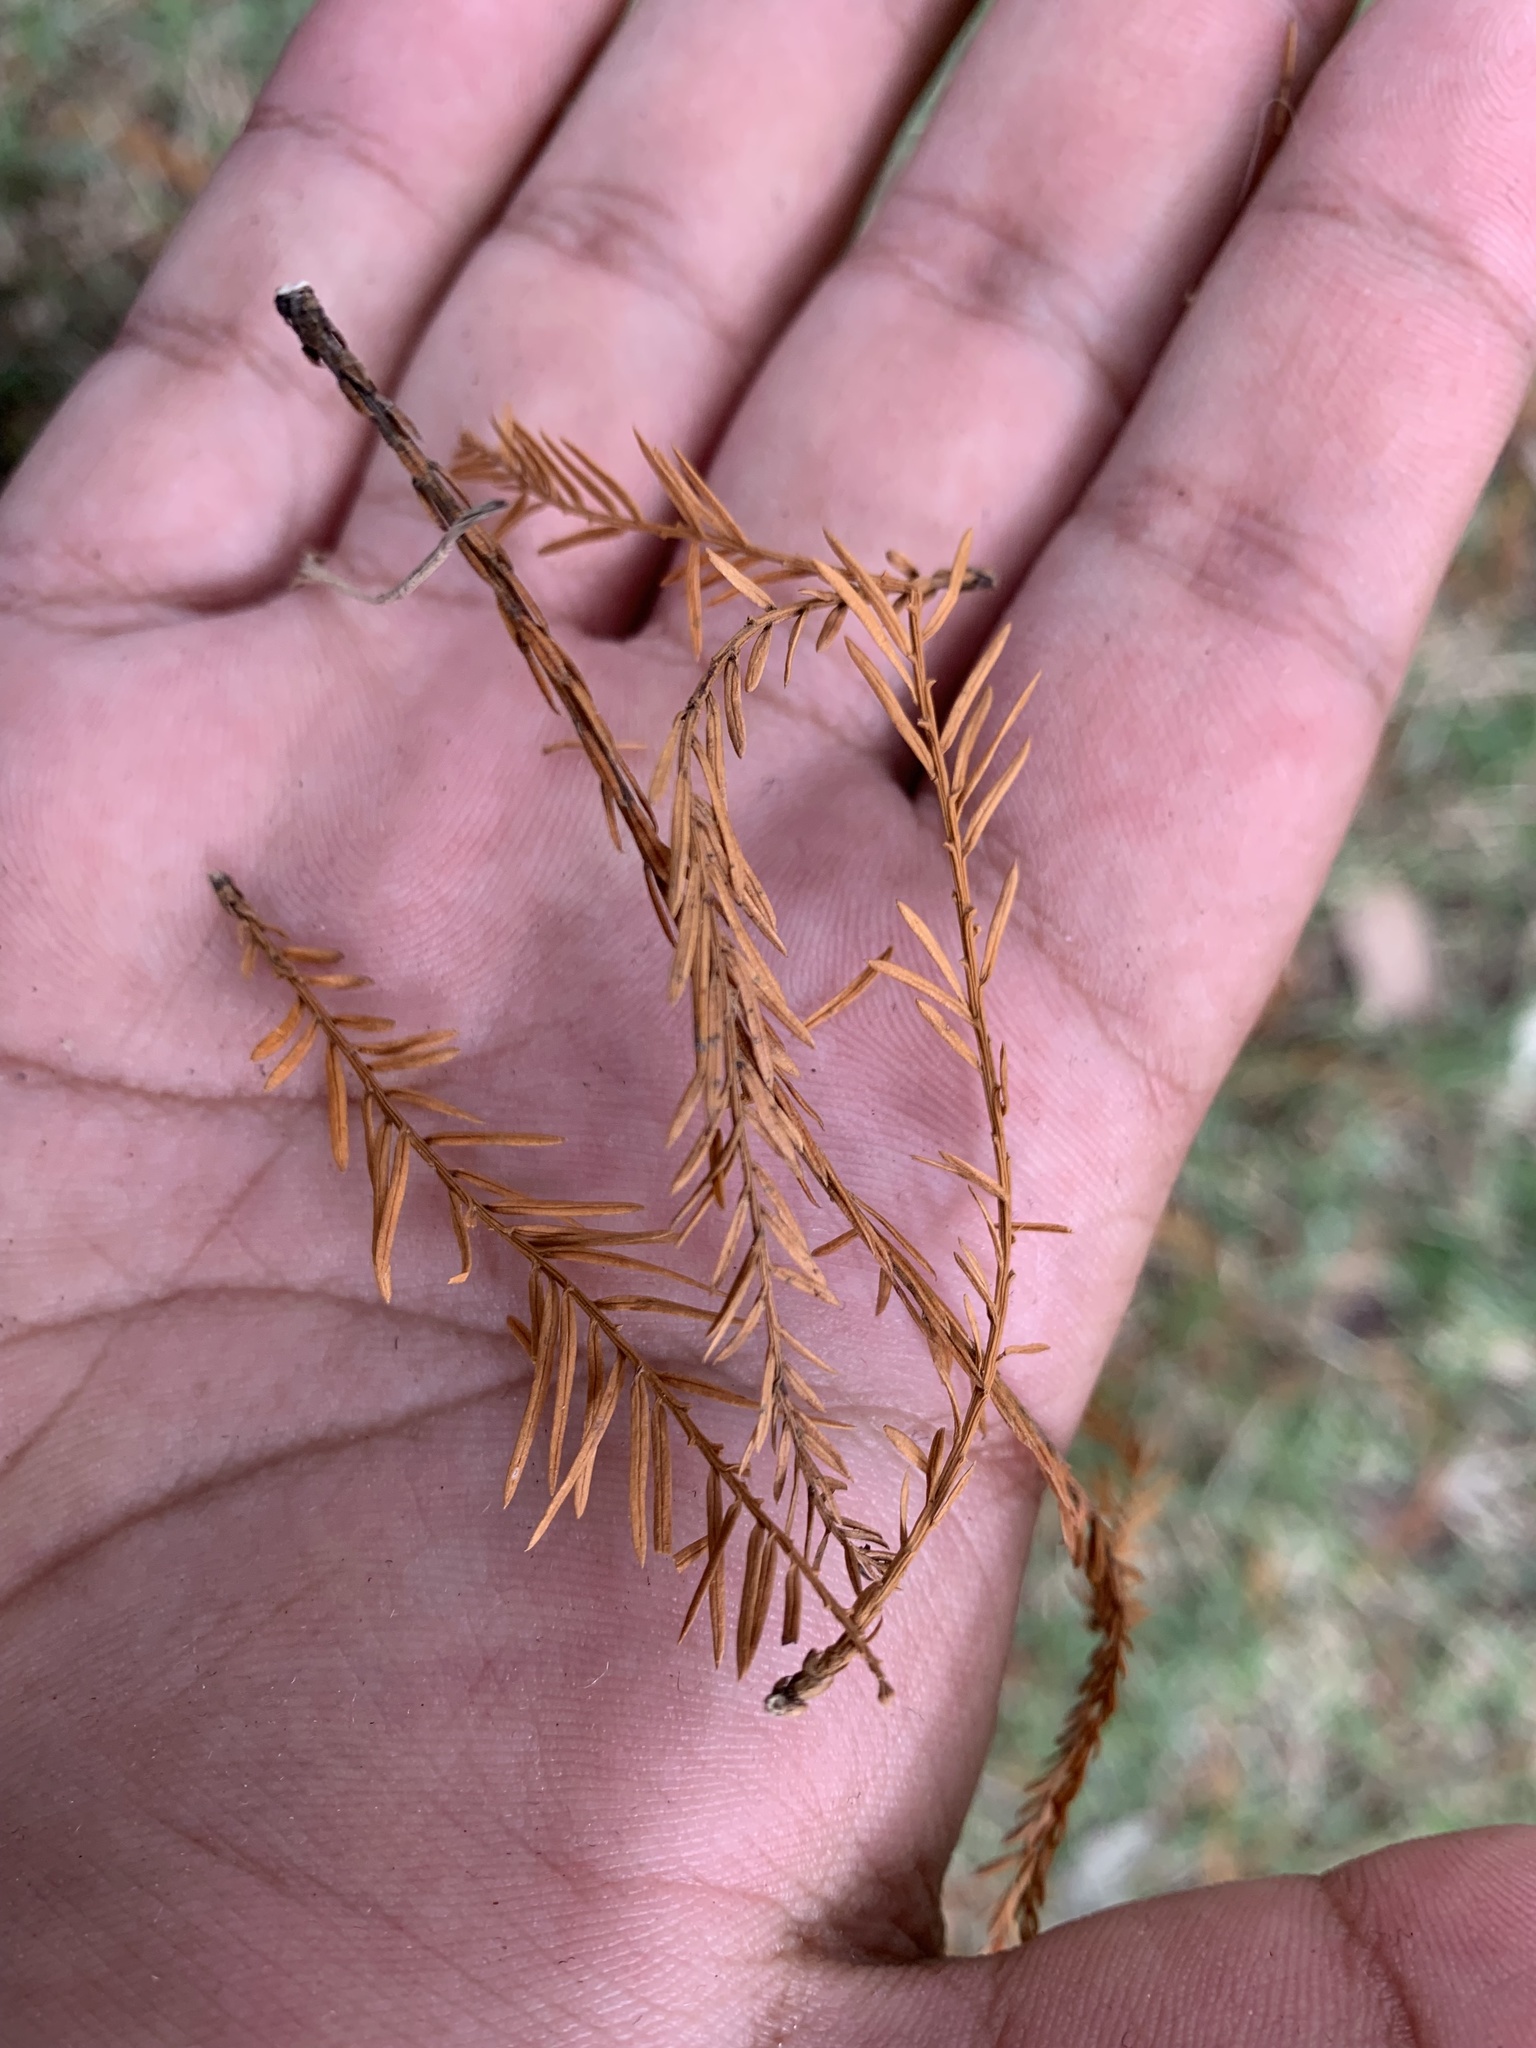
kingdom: Plantae
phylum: Tracheophyta
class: Pinopsida
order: Pinales
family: Cupressaceae
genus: Taxodium
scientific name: Taxodium distichum
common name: Bald cypress
